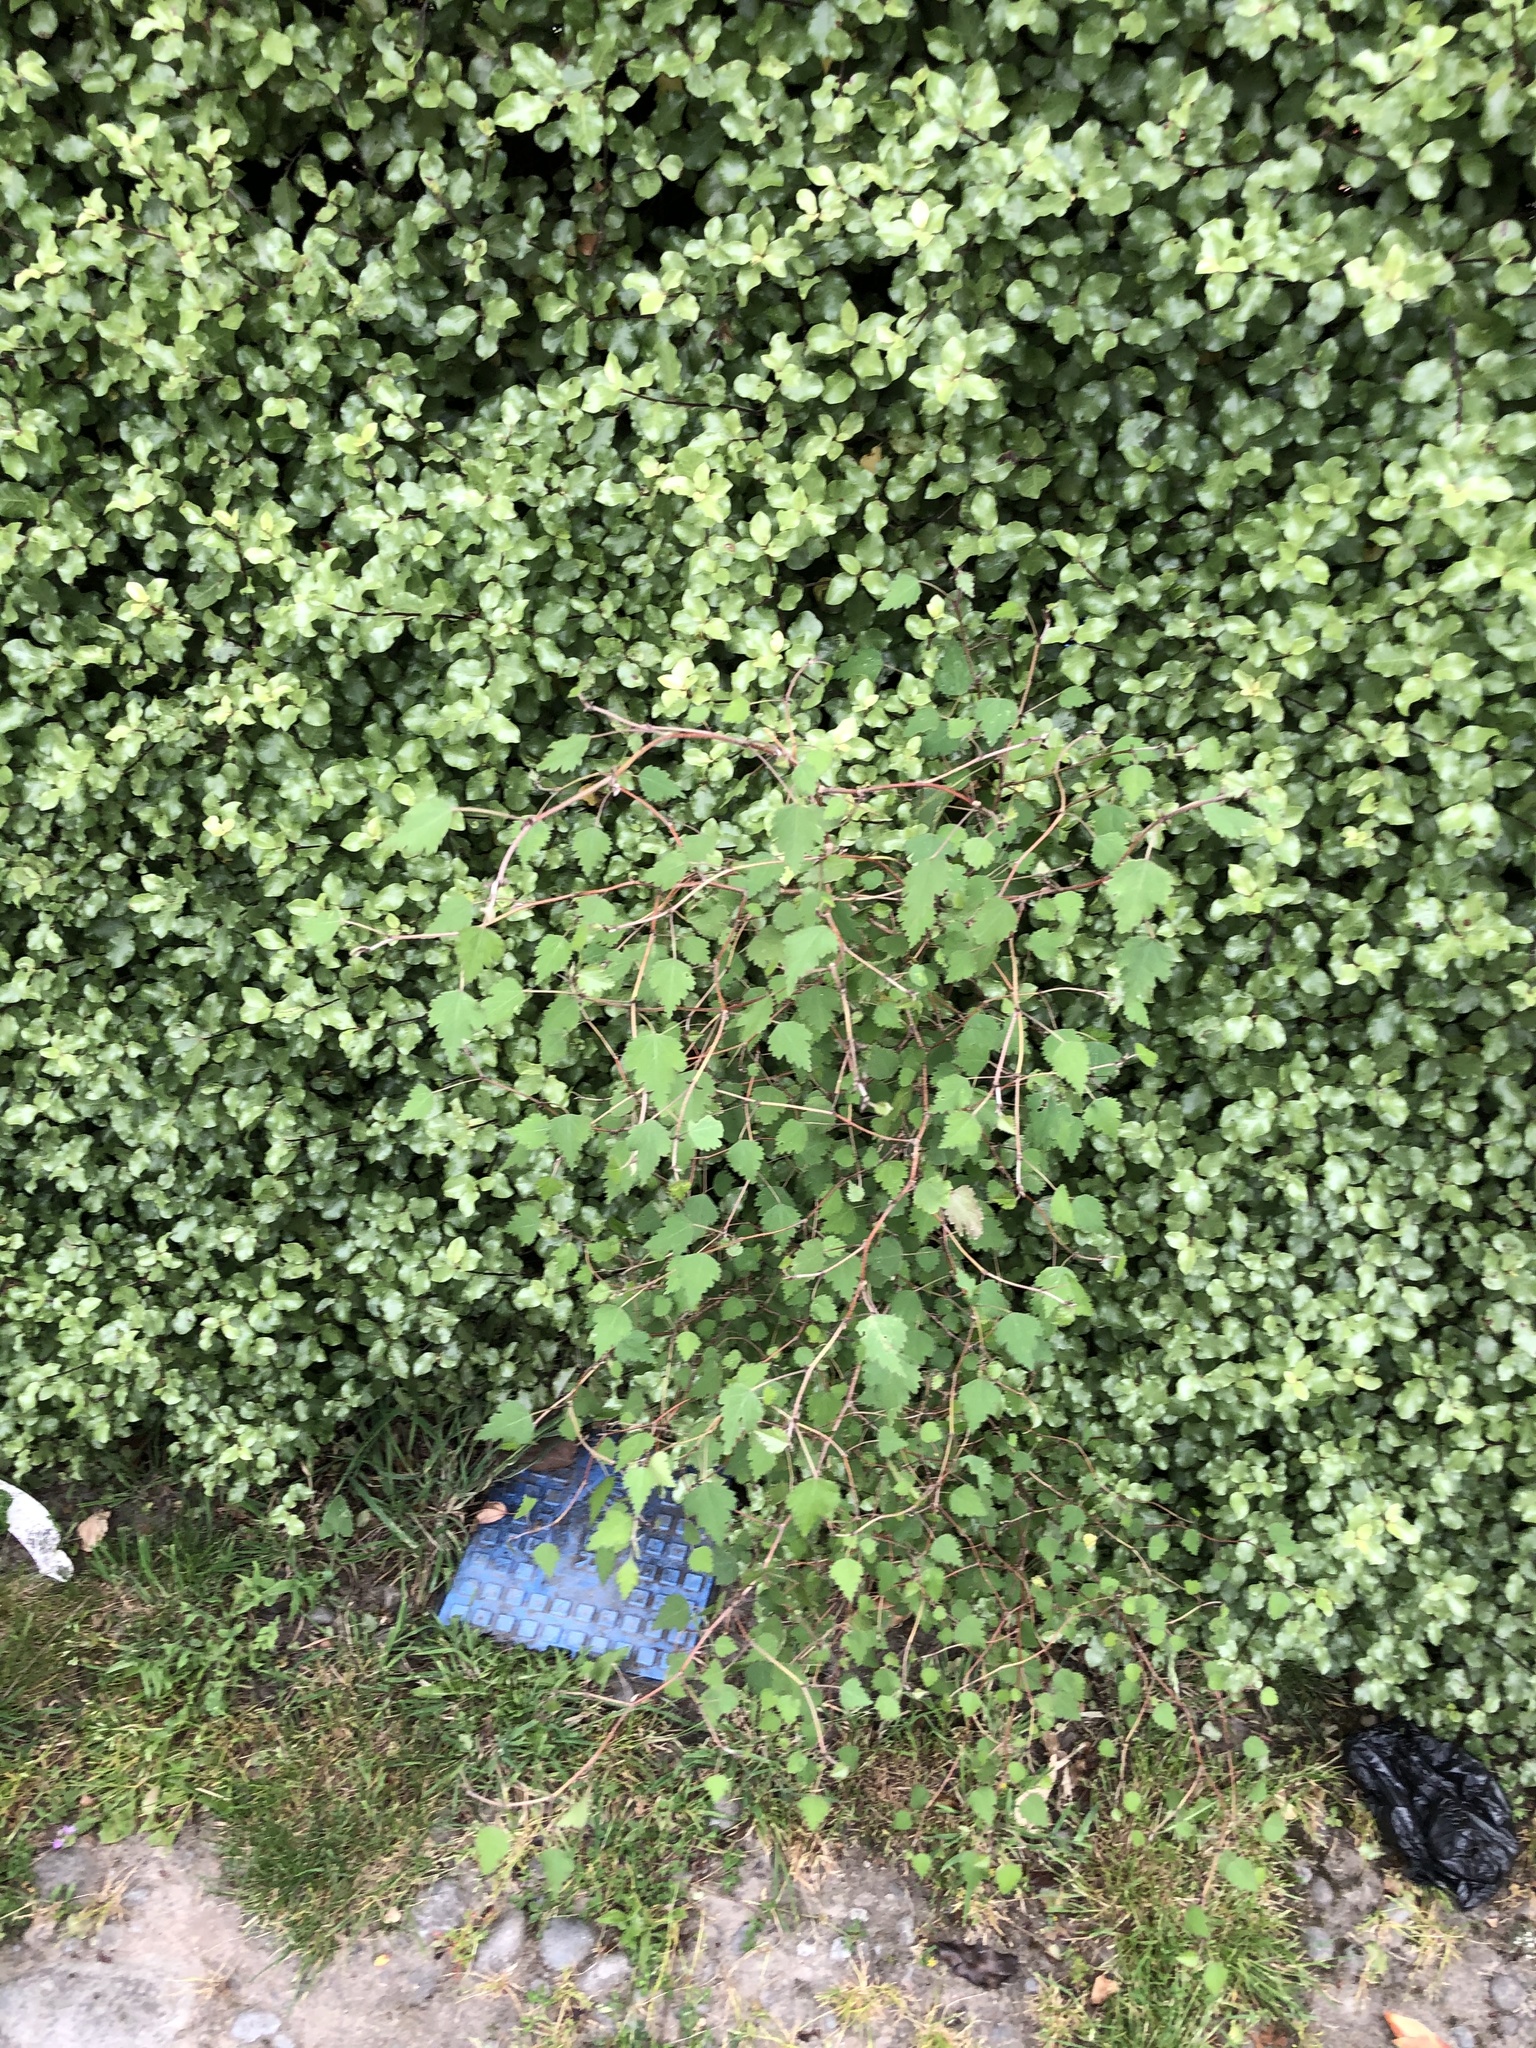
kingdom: Plantae
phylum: Tracheophyta
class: Magnoliopsida
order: Malvales
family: Malvaceae
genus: Plagianthus
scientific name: Plagianthus regius
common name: Manatu
